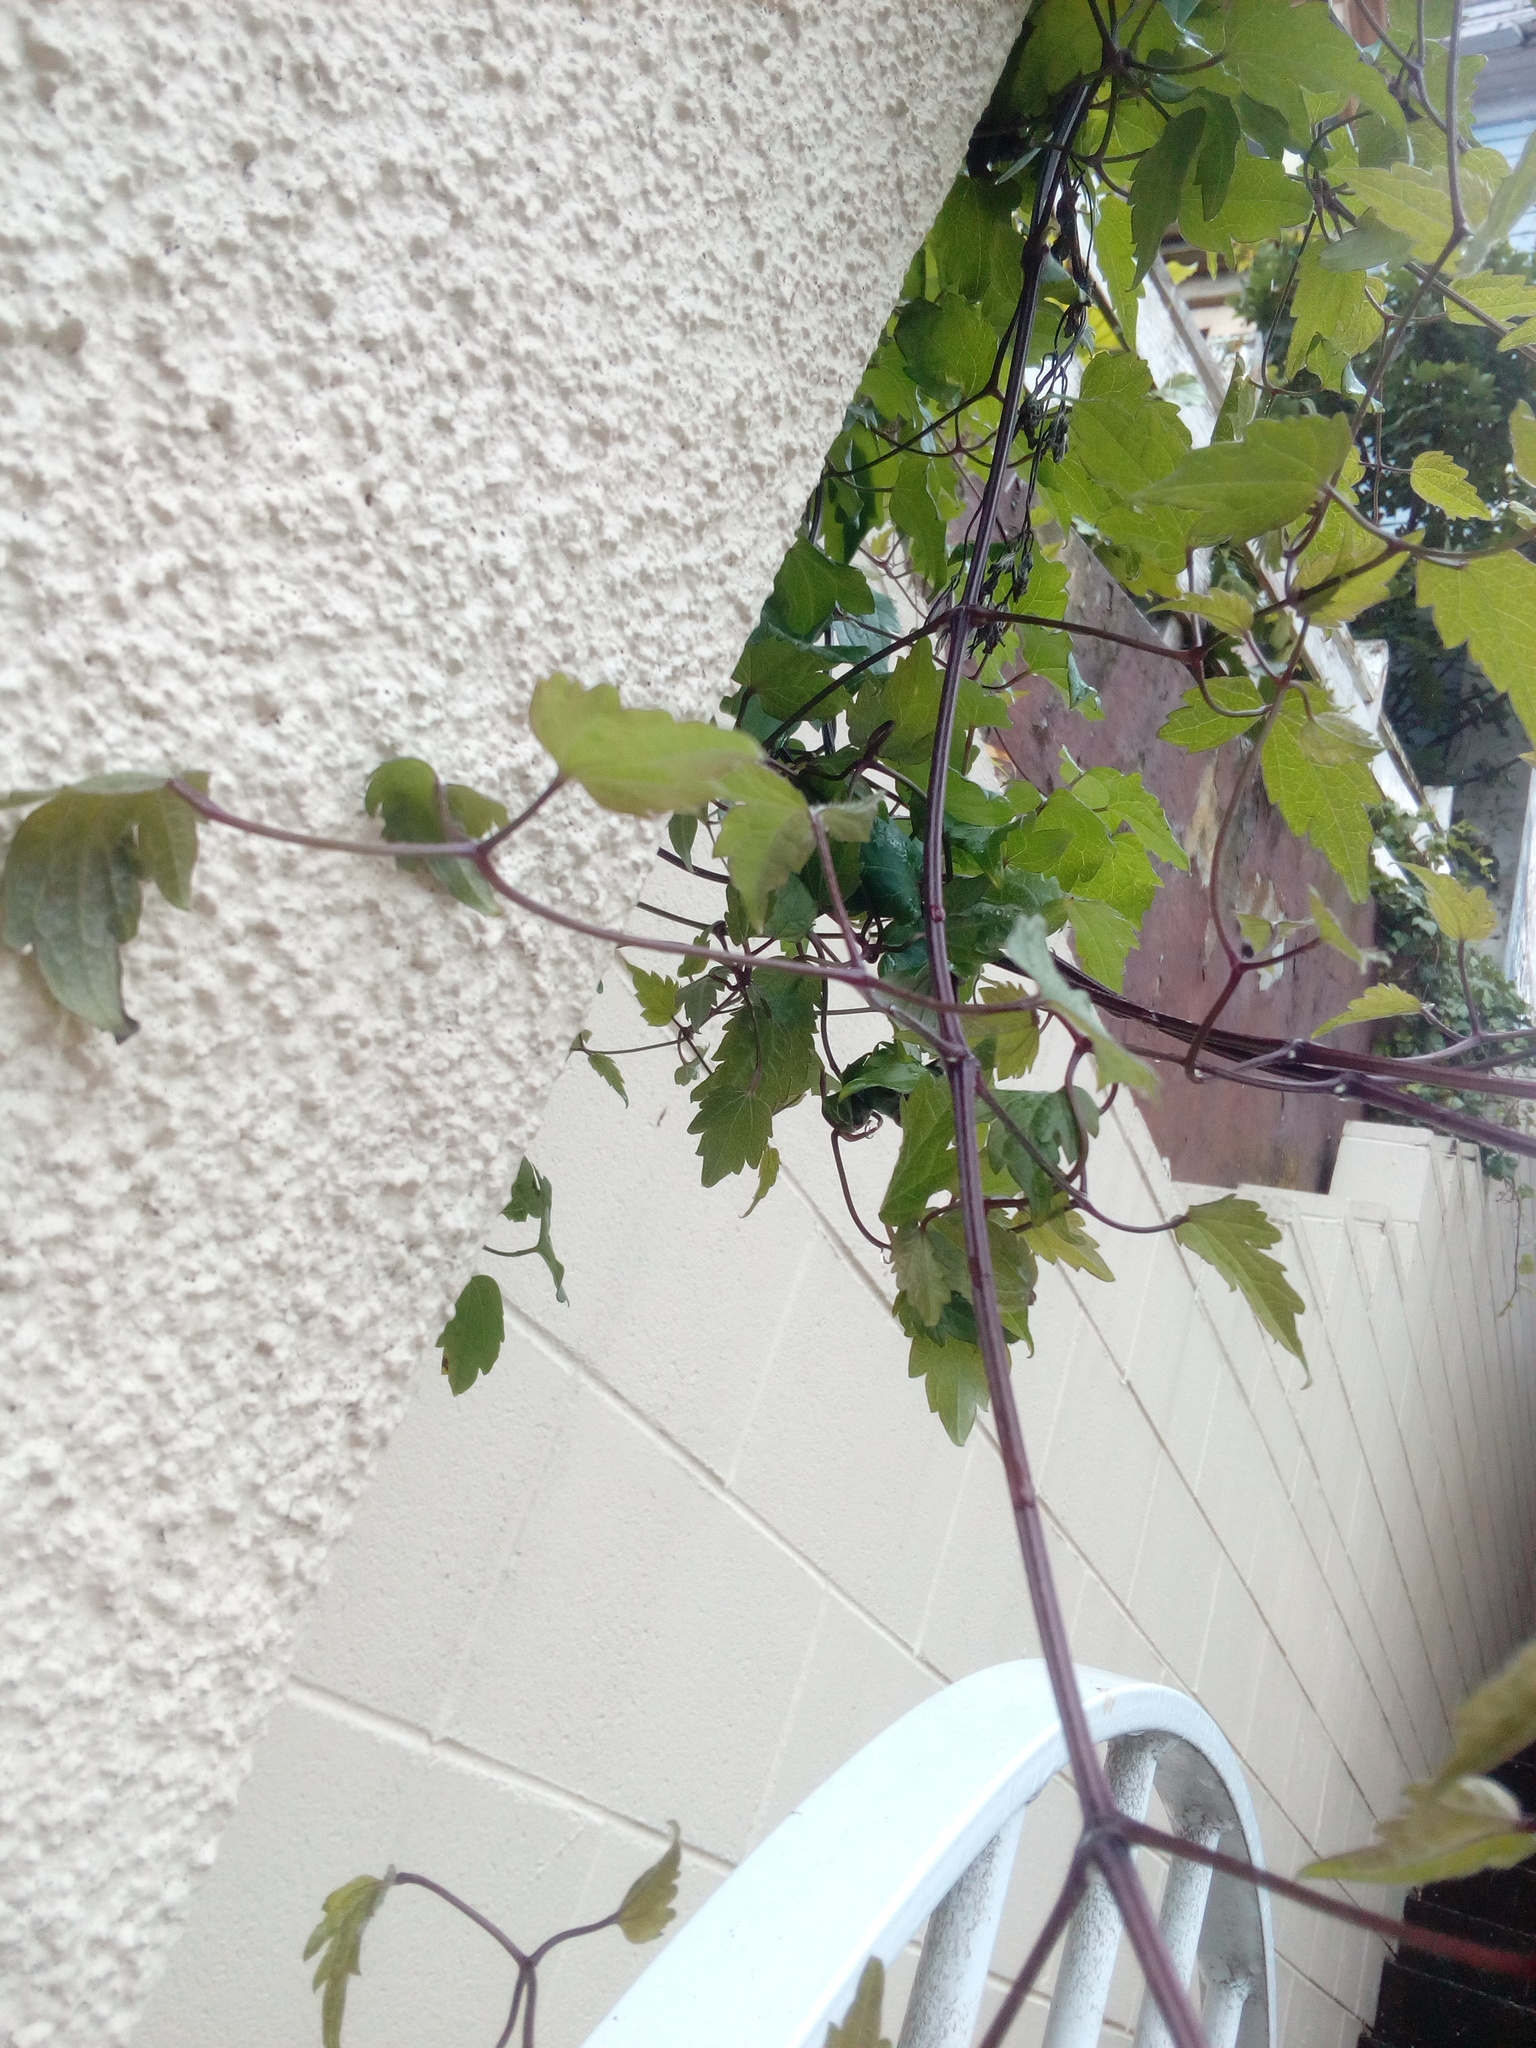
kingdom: Plantae
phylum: Tracheophyta
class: Magnoliopsida
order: Ranunculales
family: Ranunculaceae
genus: Clematis
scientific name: Clematis vitalba
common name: Evergreen clematis
